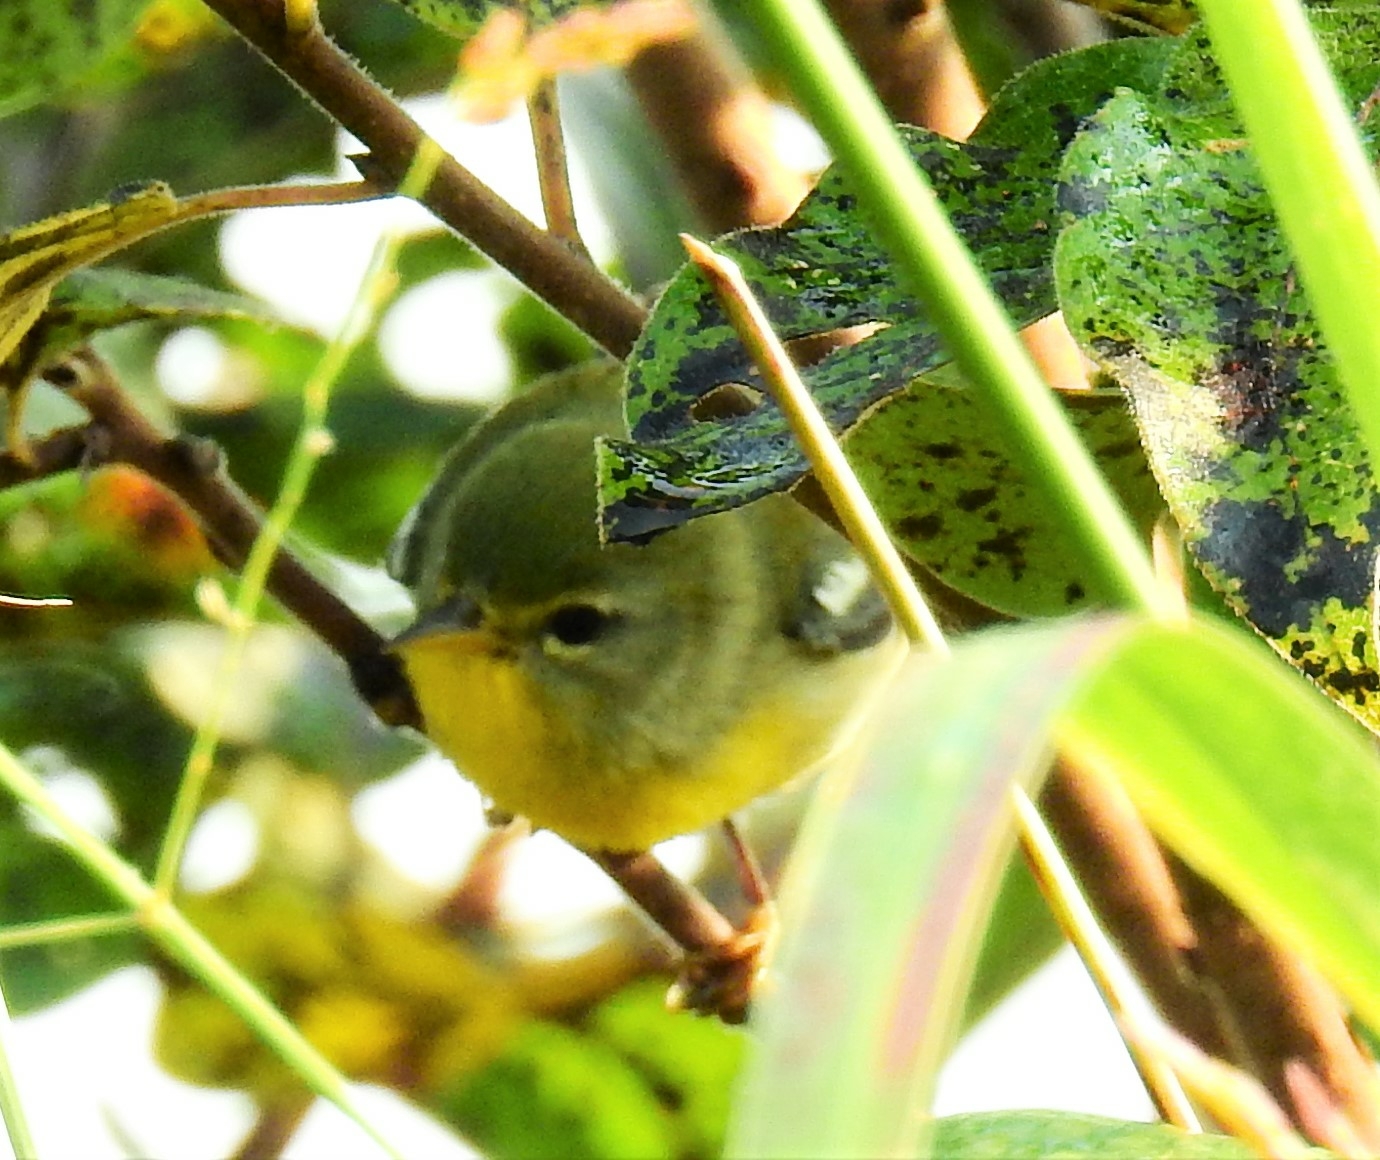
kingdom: Animalia
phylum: Chordata
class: Aves
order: Passeriformes
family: Parulidae
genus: Setophaga
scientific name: Setophaga americana
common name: Northern parula
